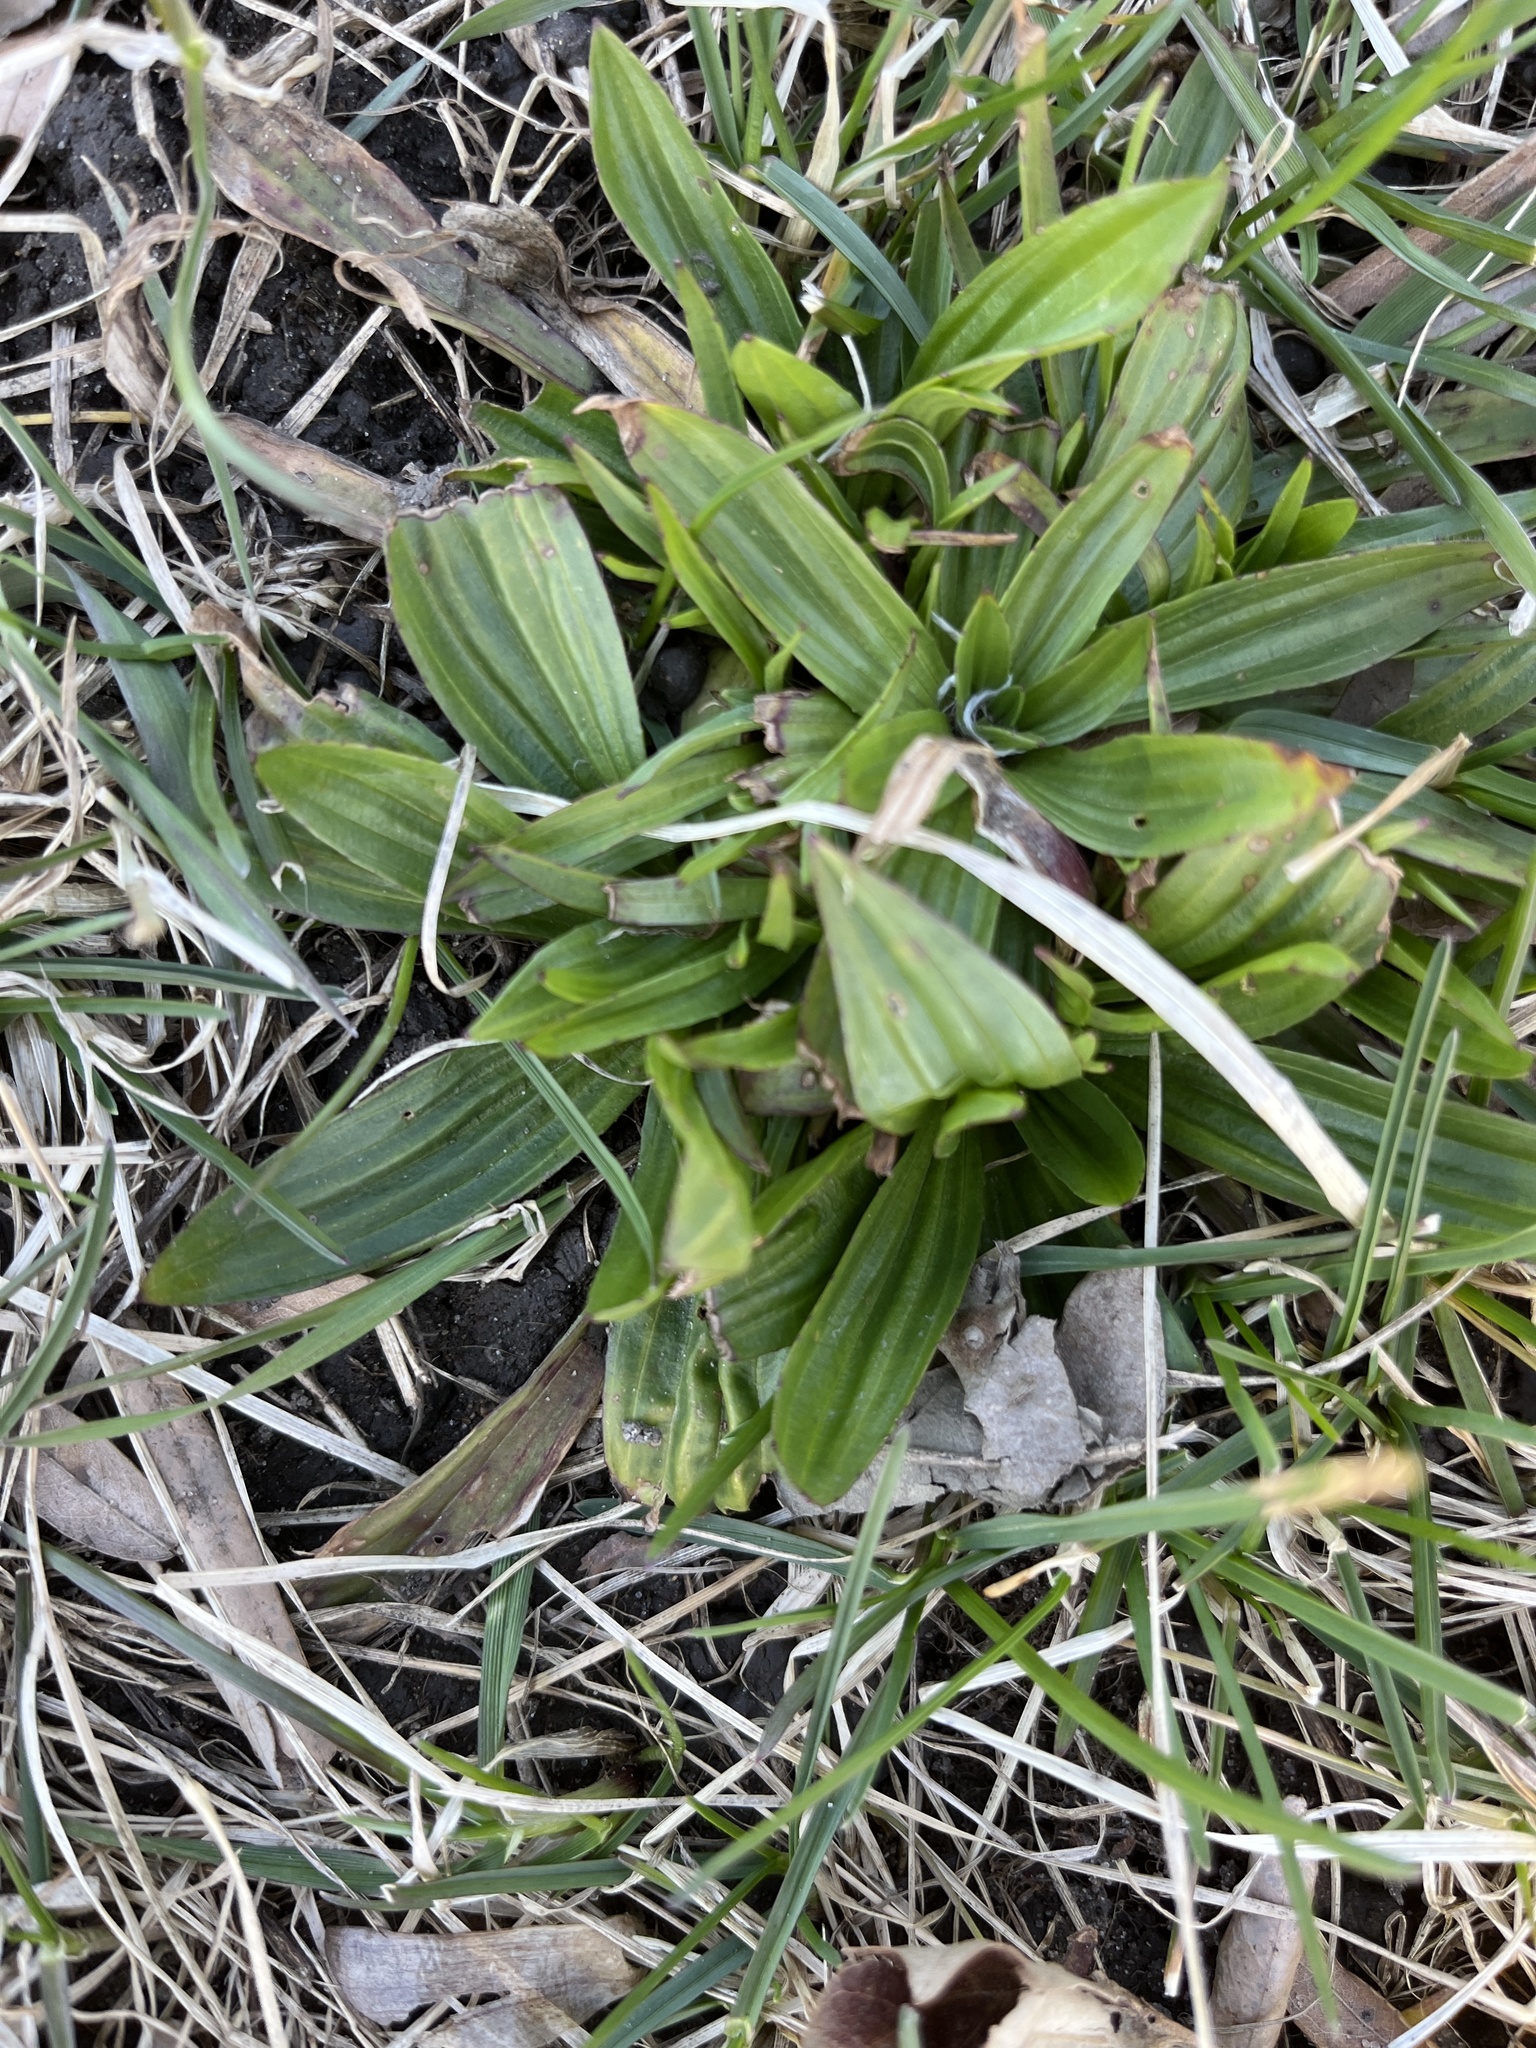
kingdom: Plantae
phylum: Tracheophyta
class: Magnoliopsida
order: Lamiales
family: Plantaginaceae
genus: Plantago
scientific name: Plantago lanceolata
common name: Ribwort plantain
